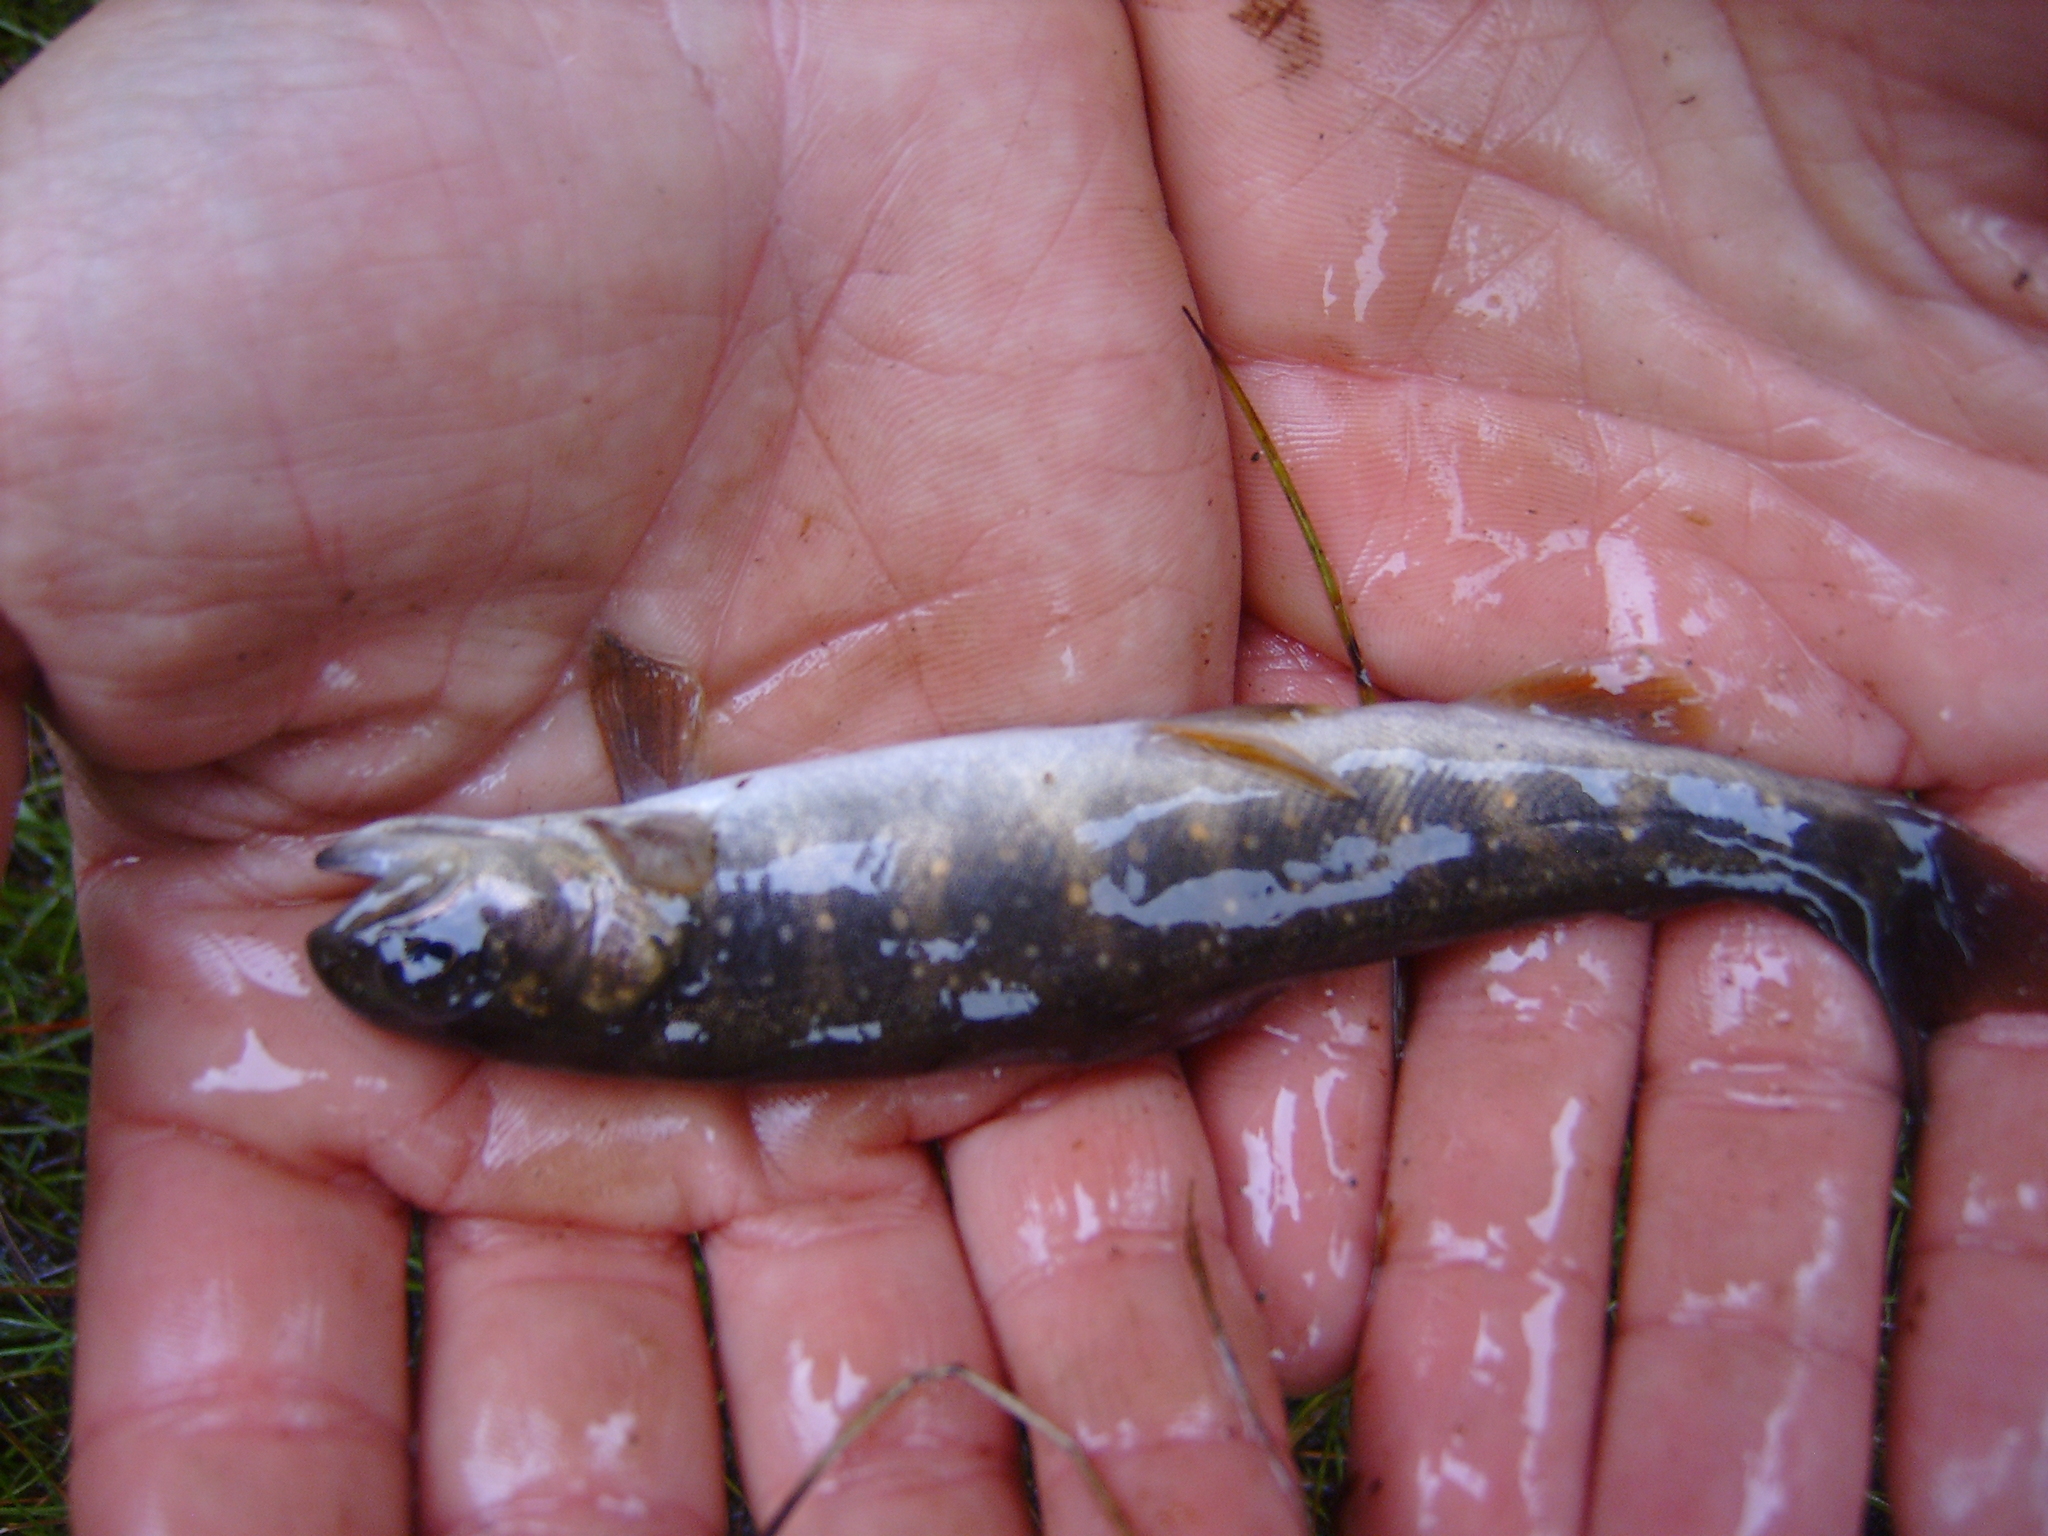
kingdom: Animalia
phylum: Chordata
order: Salmoniformes
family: Salmonidae
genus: Salvelinus
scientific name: Salvelinus malma
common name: Dolly varden charr
